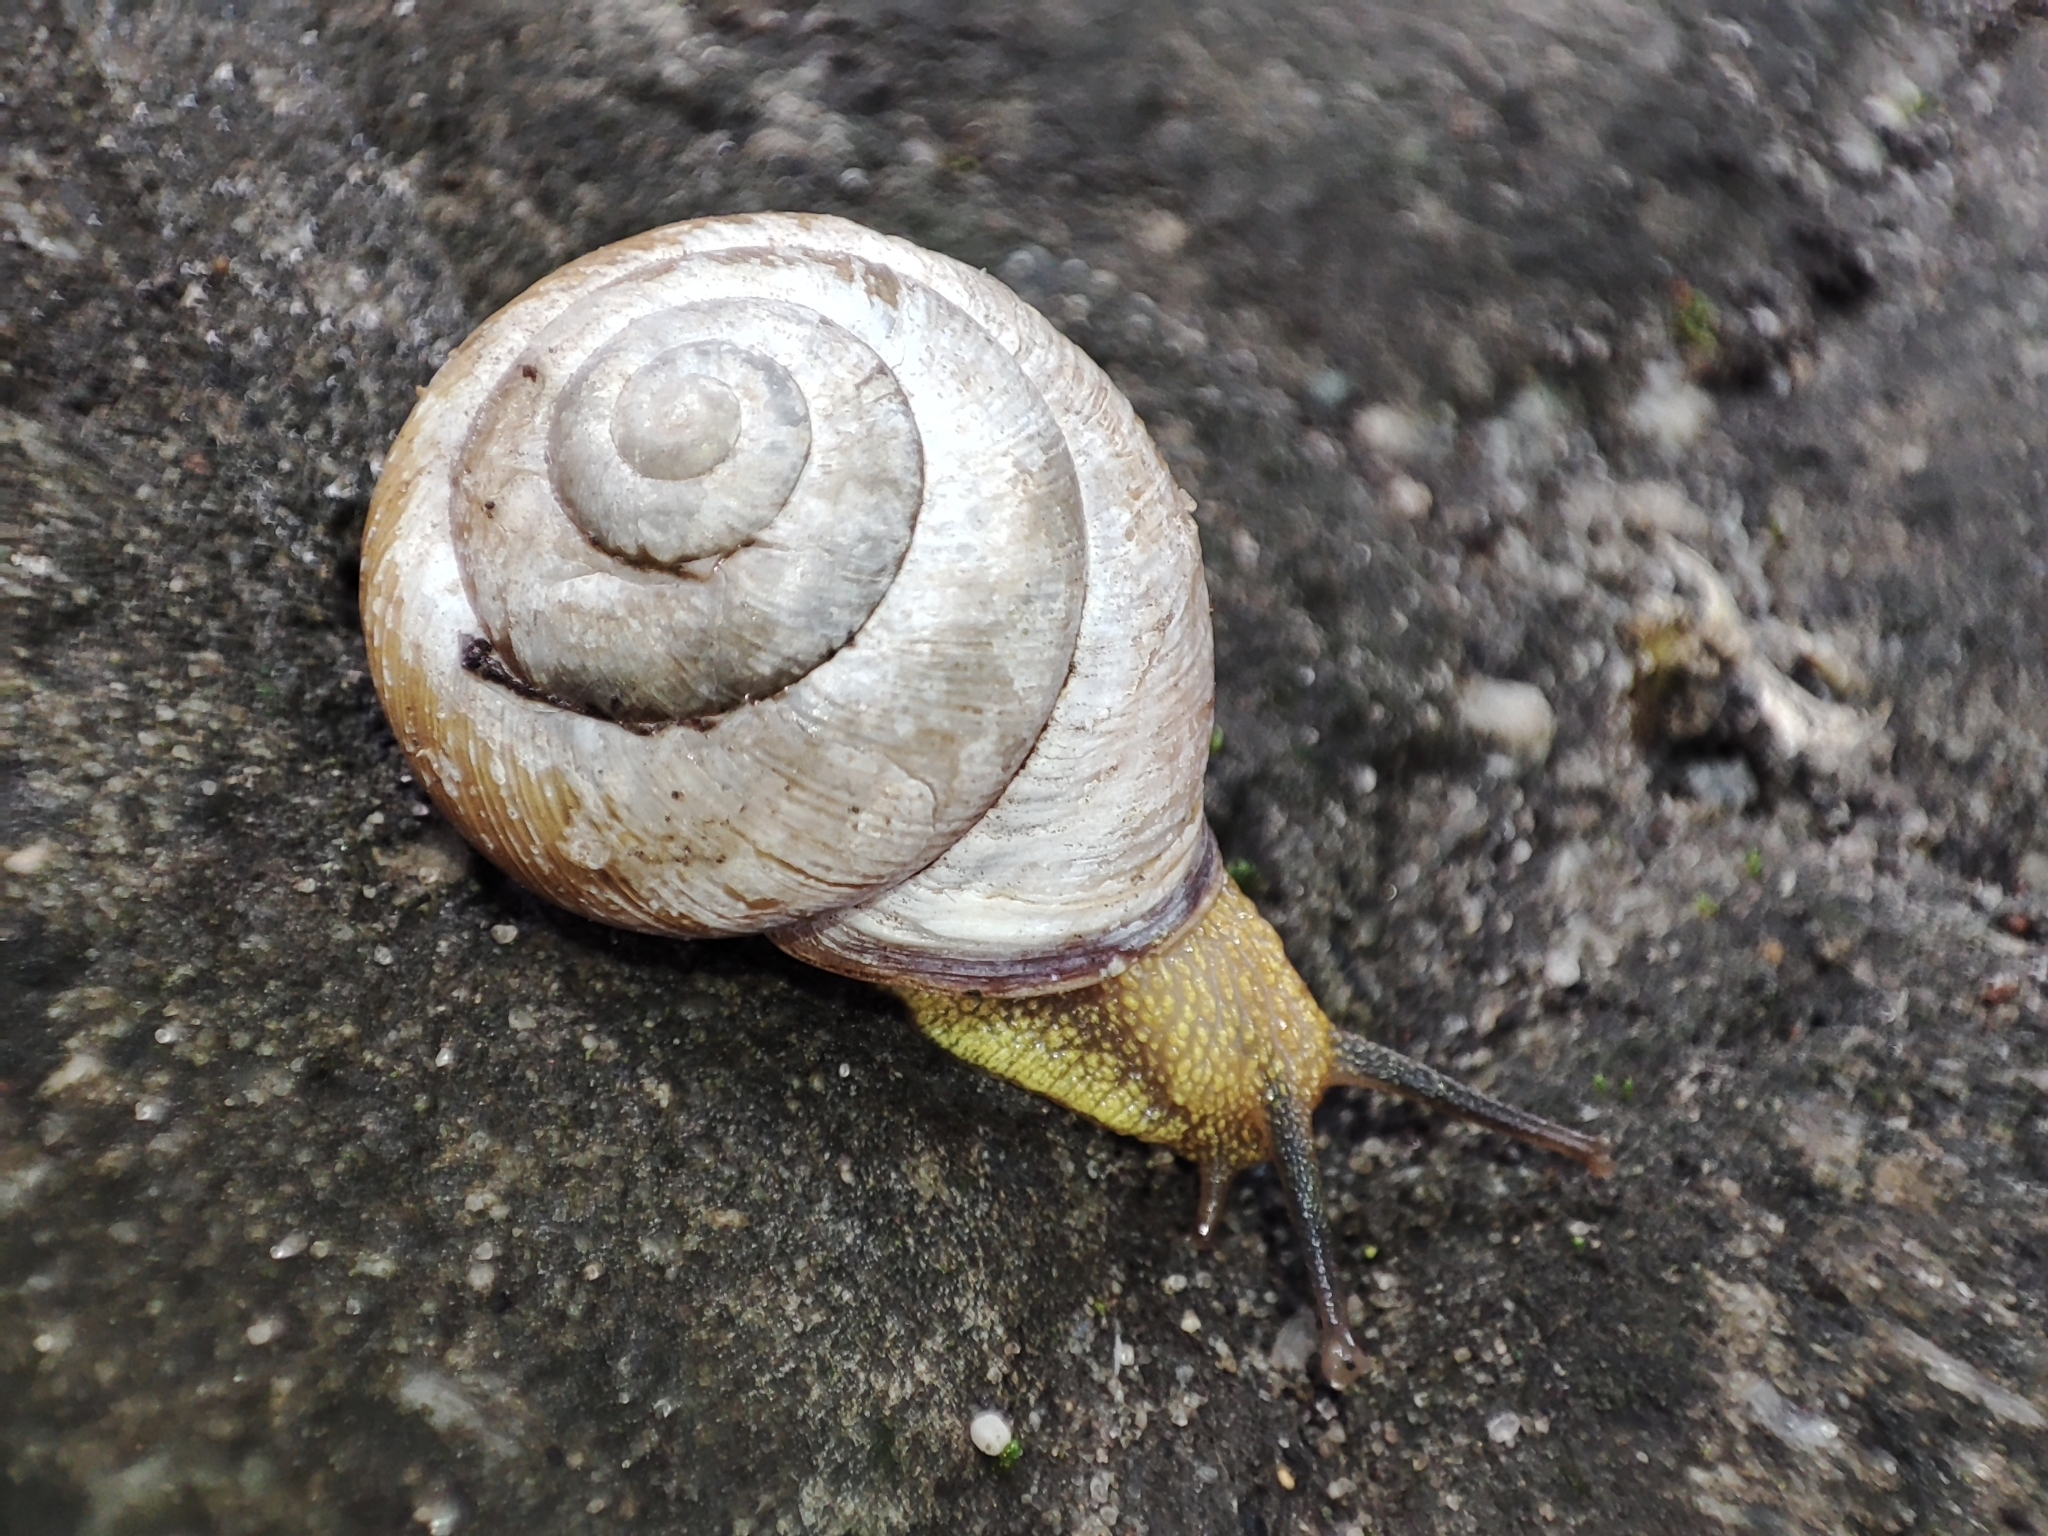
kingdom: Animalia
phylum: Mollusca
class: Gastropoda
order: Stylommatophora
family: Helicidae
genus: Caucasotachea
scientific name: Caucasotachea vindobonensis
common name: European helicid land snail
